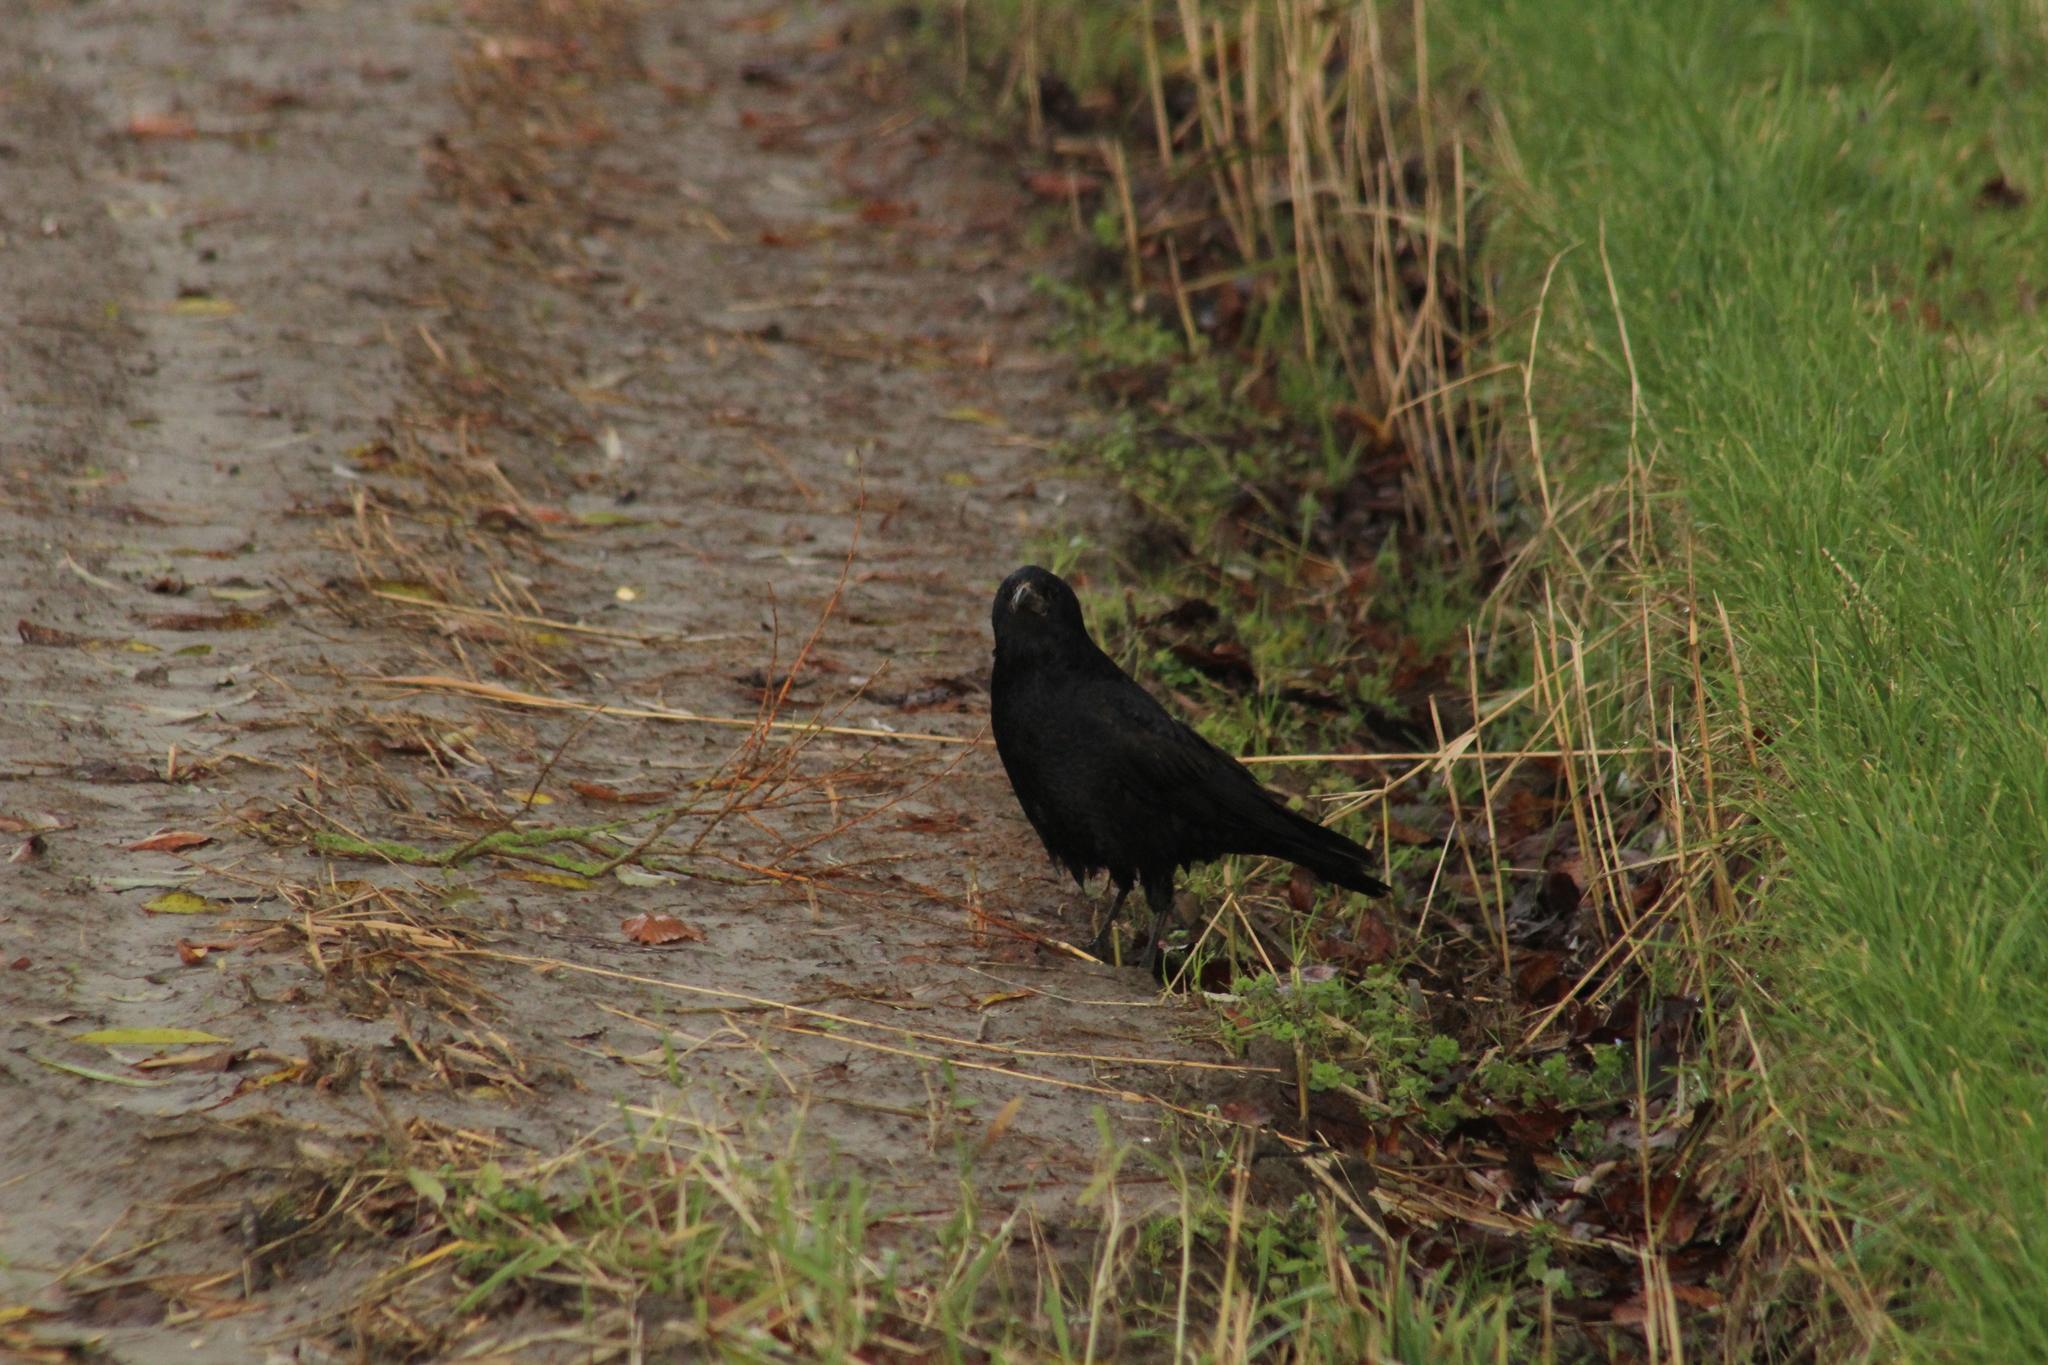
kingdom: Animalia
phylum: Chordata
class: Aves
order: Passeriformes
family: Corvidae
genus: Corvus
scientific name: Corvus corone
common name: Carrion crow
